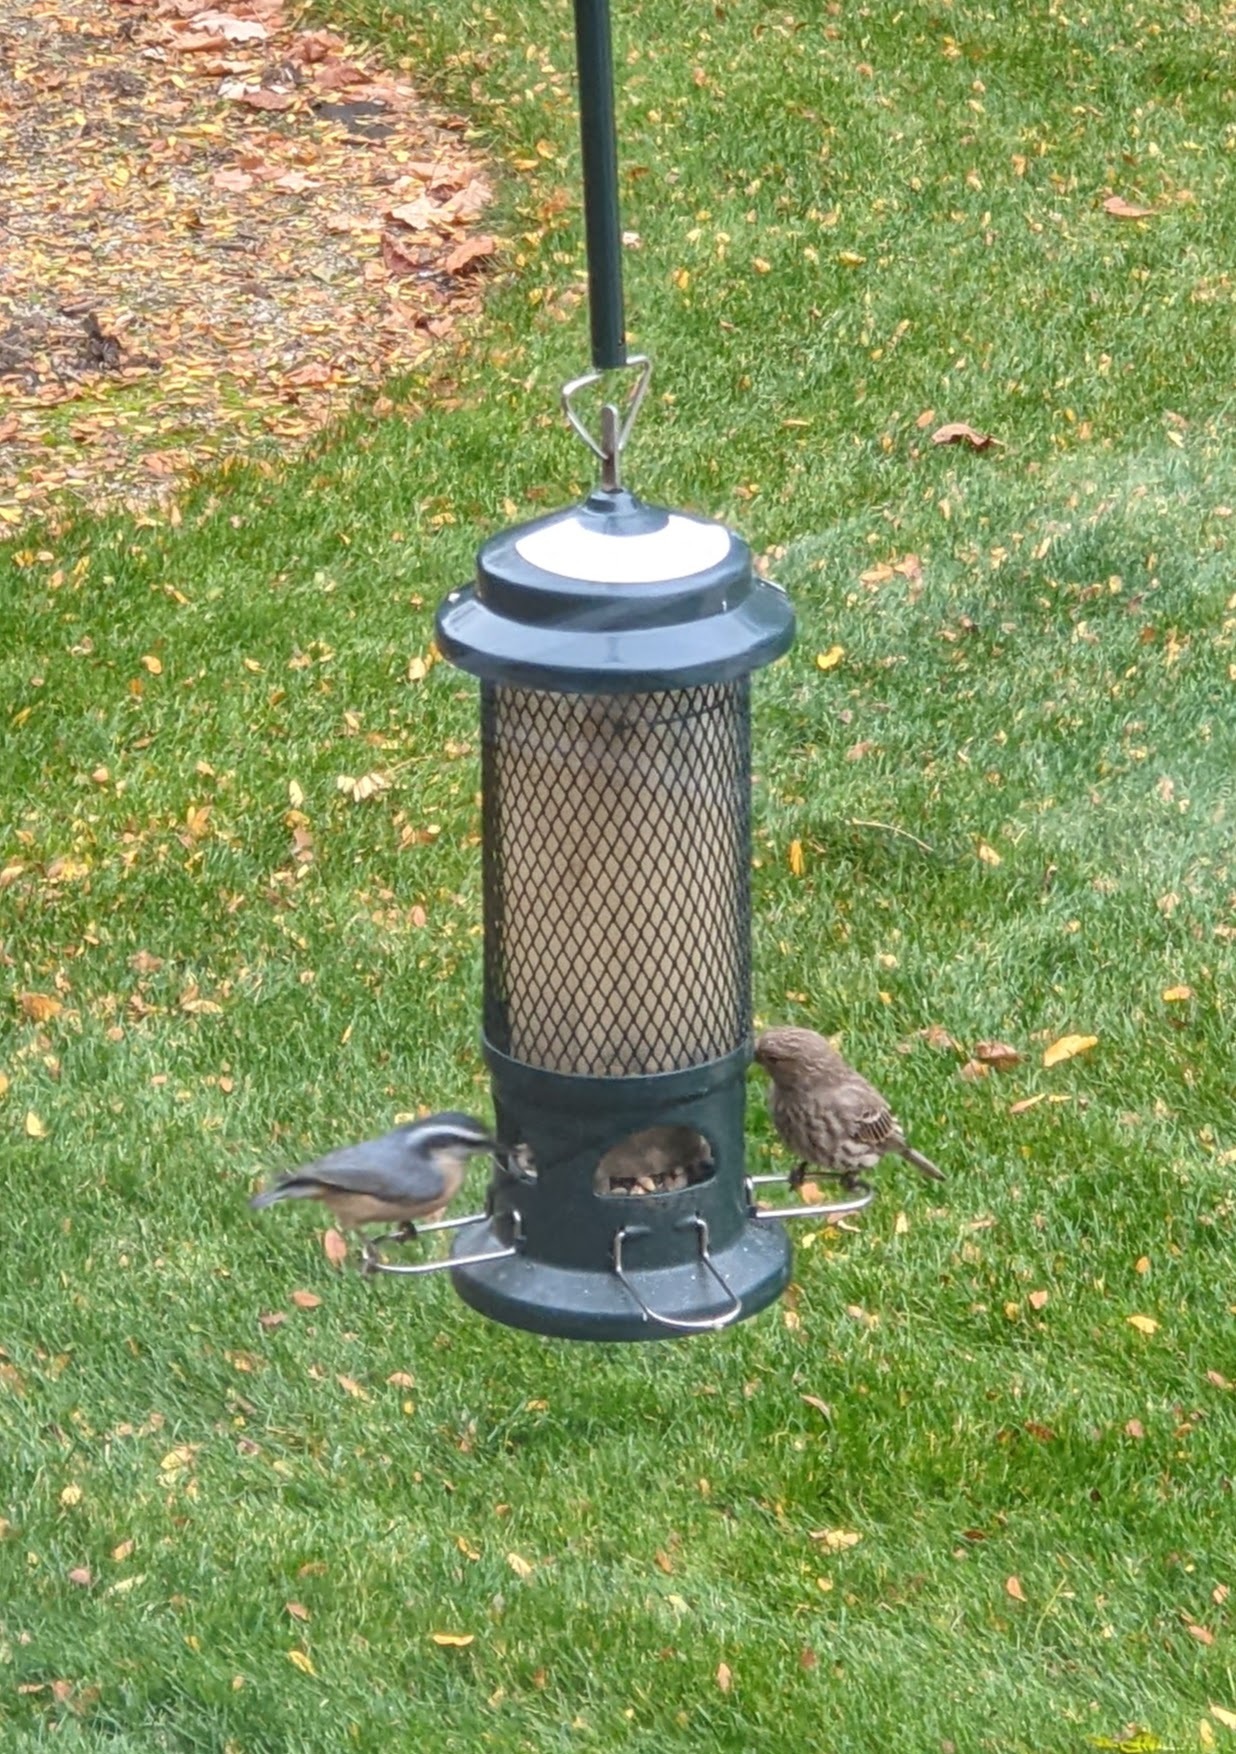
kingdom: Animalia
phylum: Chordata
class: Aves
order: Passeriformes
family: Sittidae
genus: Sitta
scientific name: Sitta canadensis
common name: Red-breasted nuthatch
